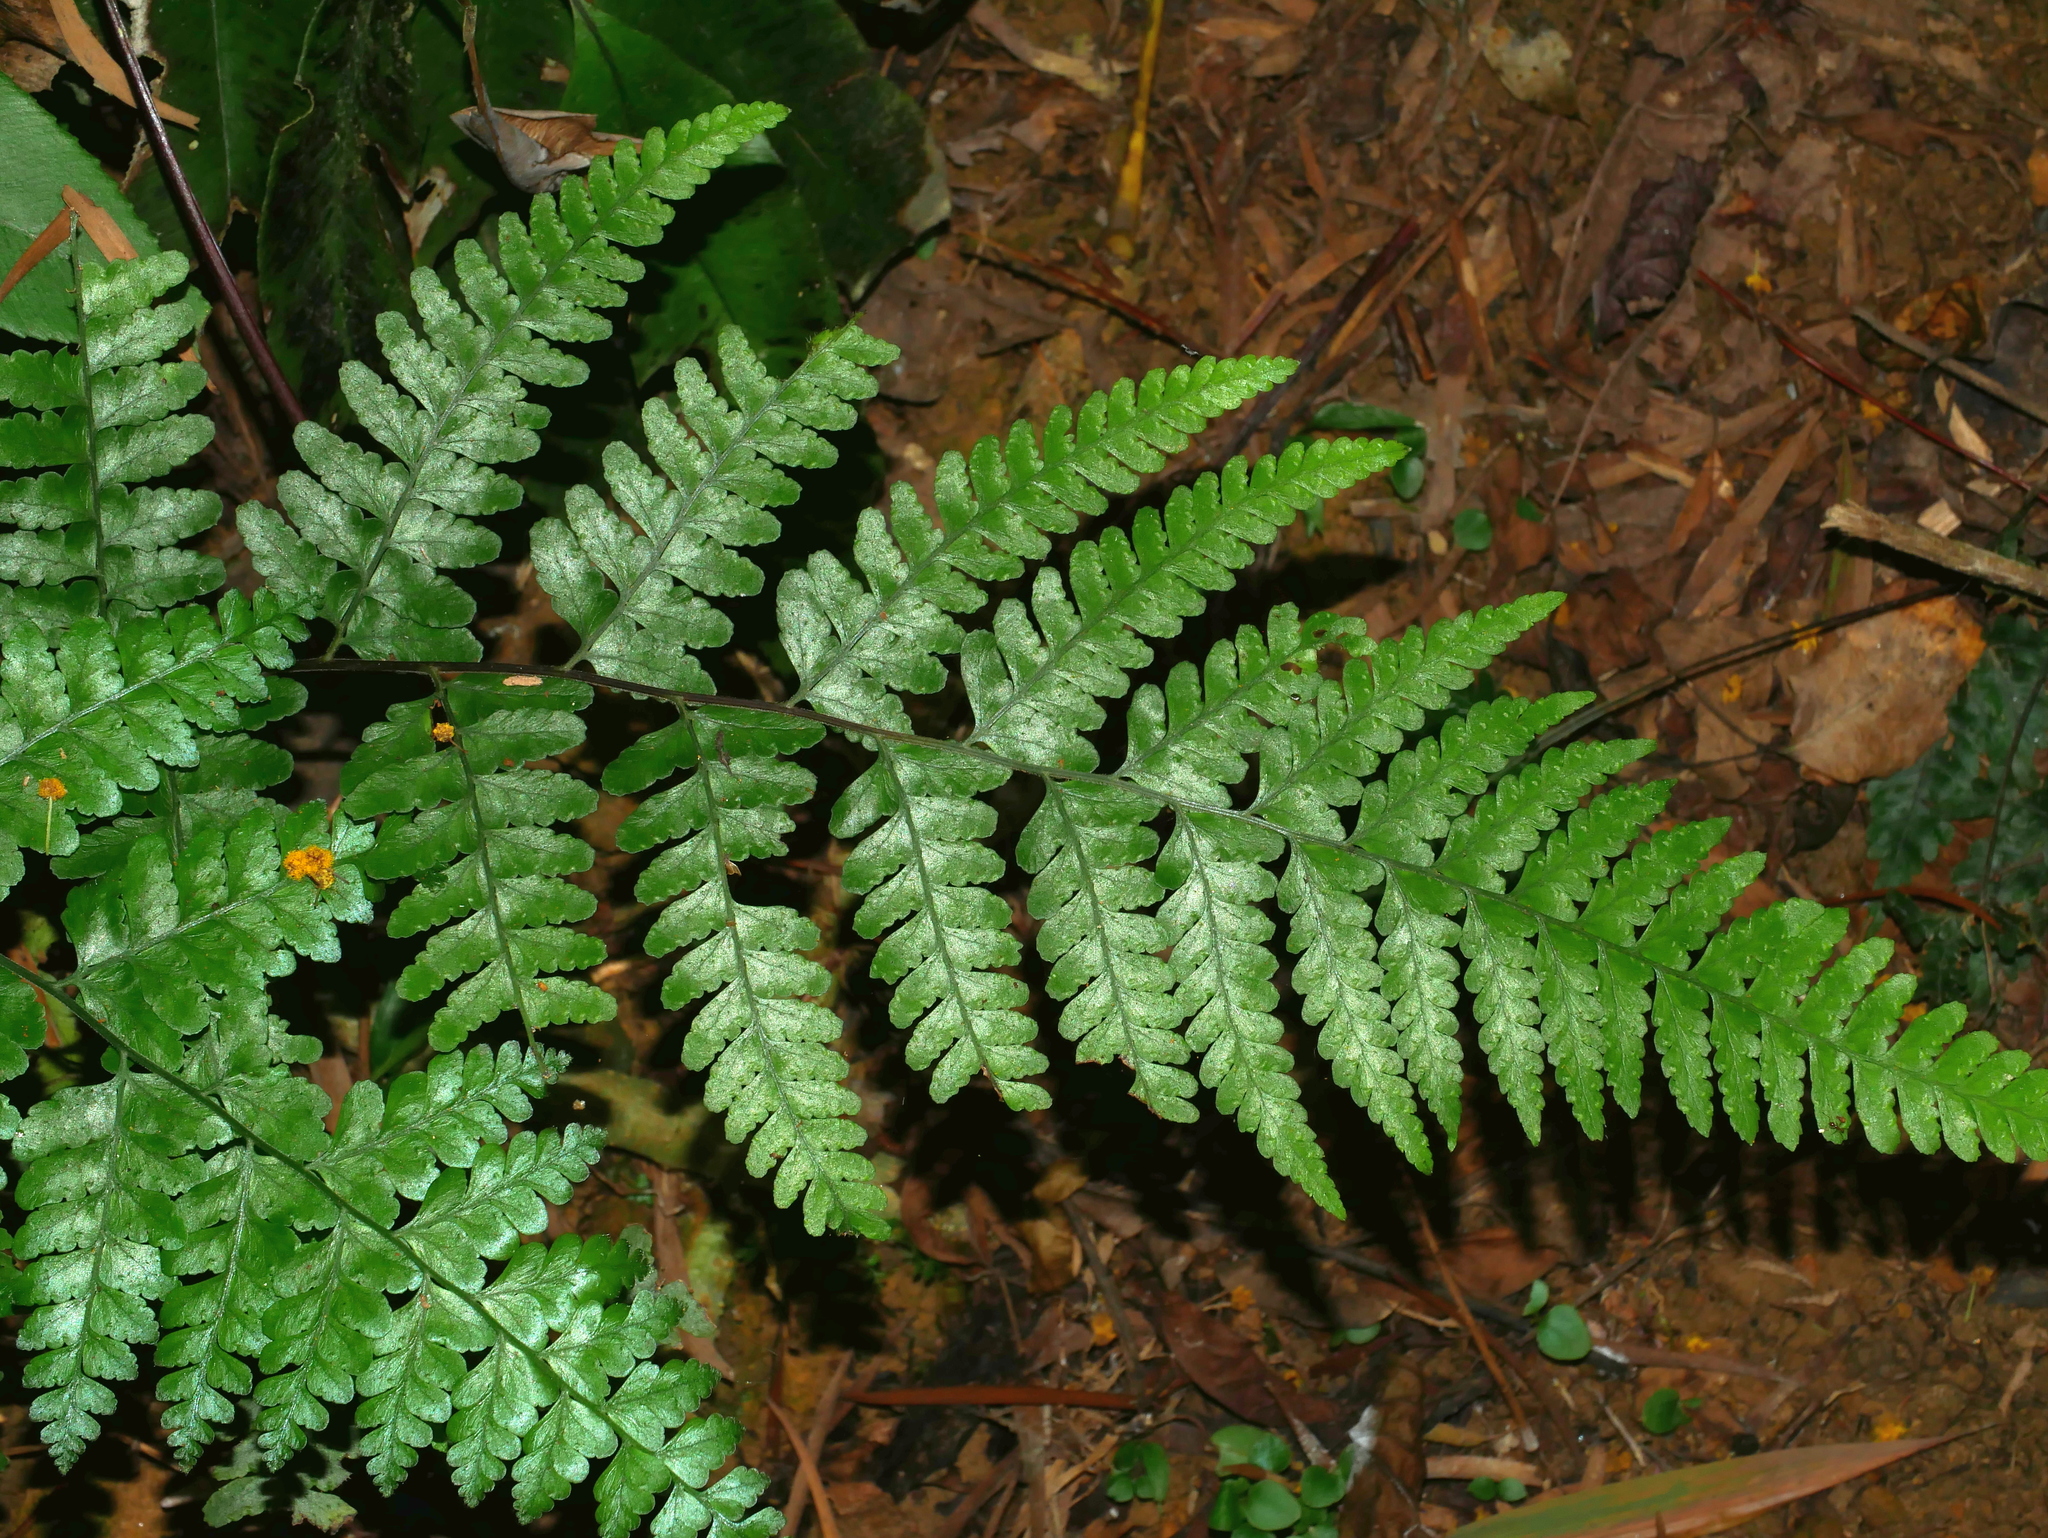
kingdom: Plantae
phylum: Tracheophyta
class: Polypodiopsida
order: Polypodiales
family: Dennstaedtiaceae
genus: Microlepia
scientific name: Microlepia obtusiloba
